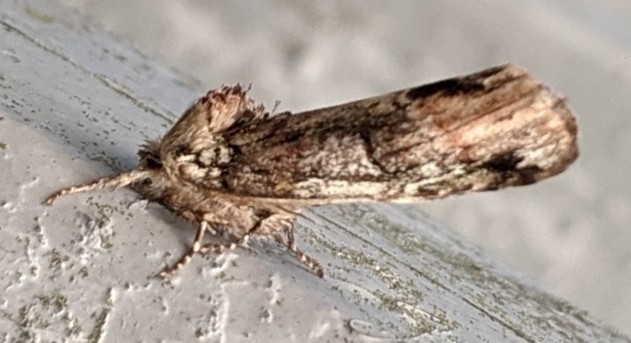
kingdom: Animalia
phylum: Arthropoda
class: Insecta
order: Lepidoptera
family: Notodontidae
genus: Schizura
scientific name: Schizura
